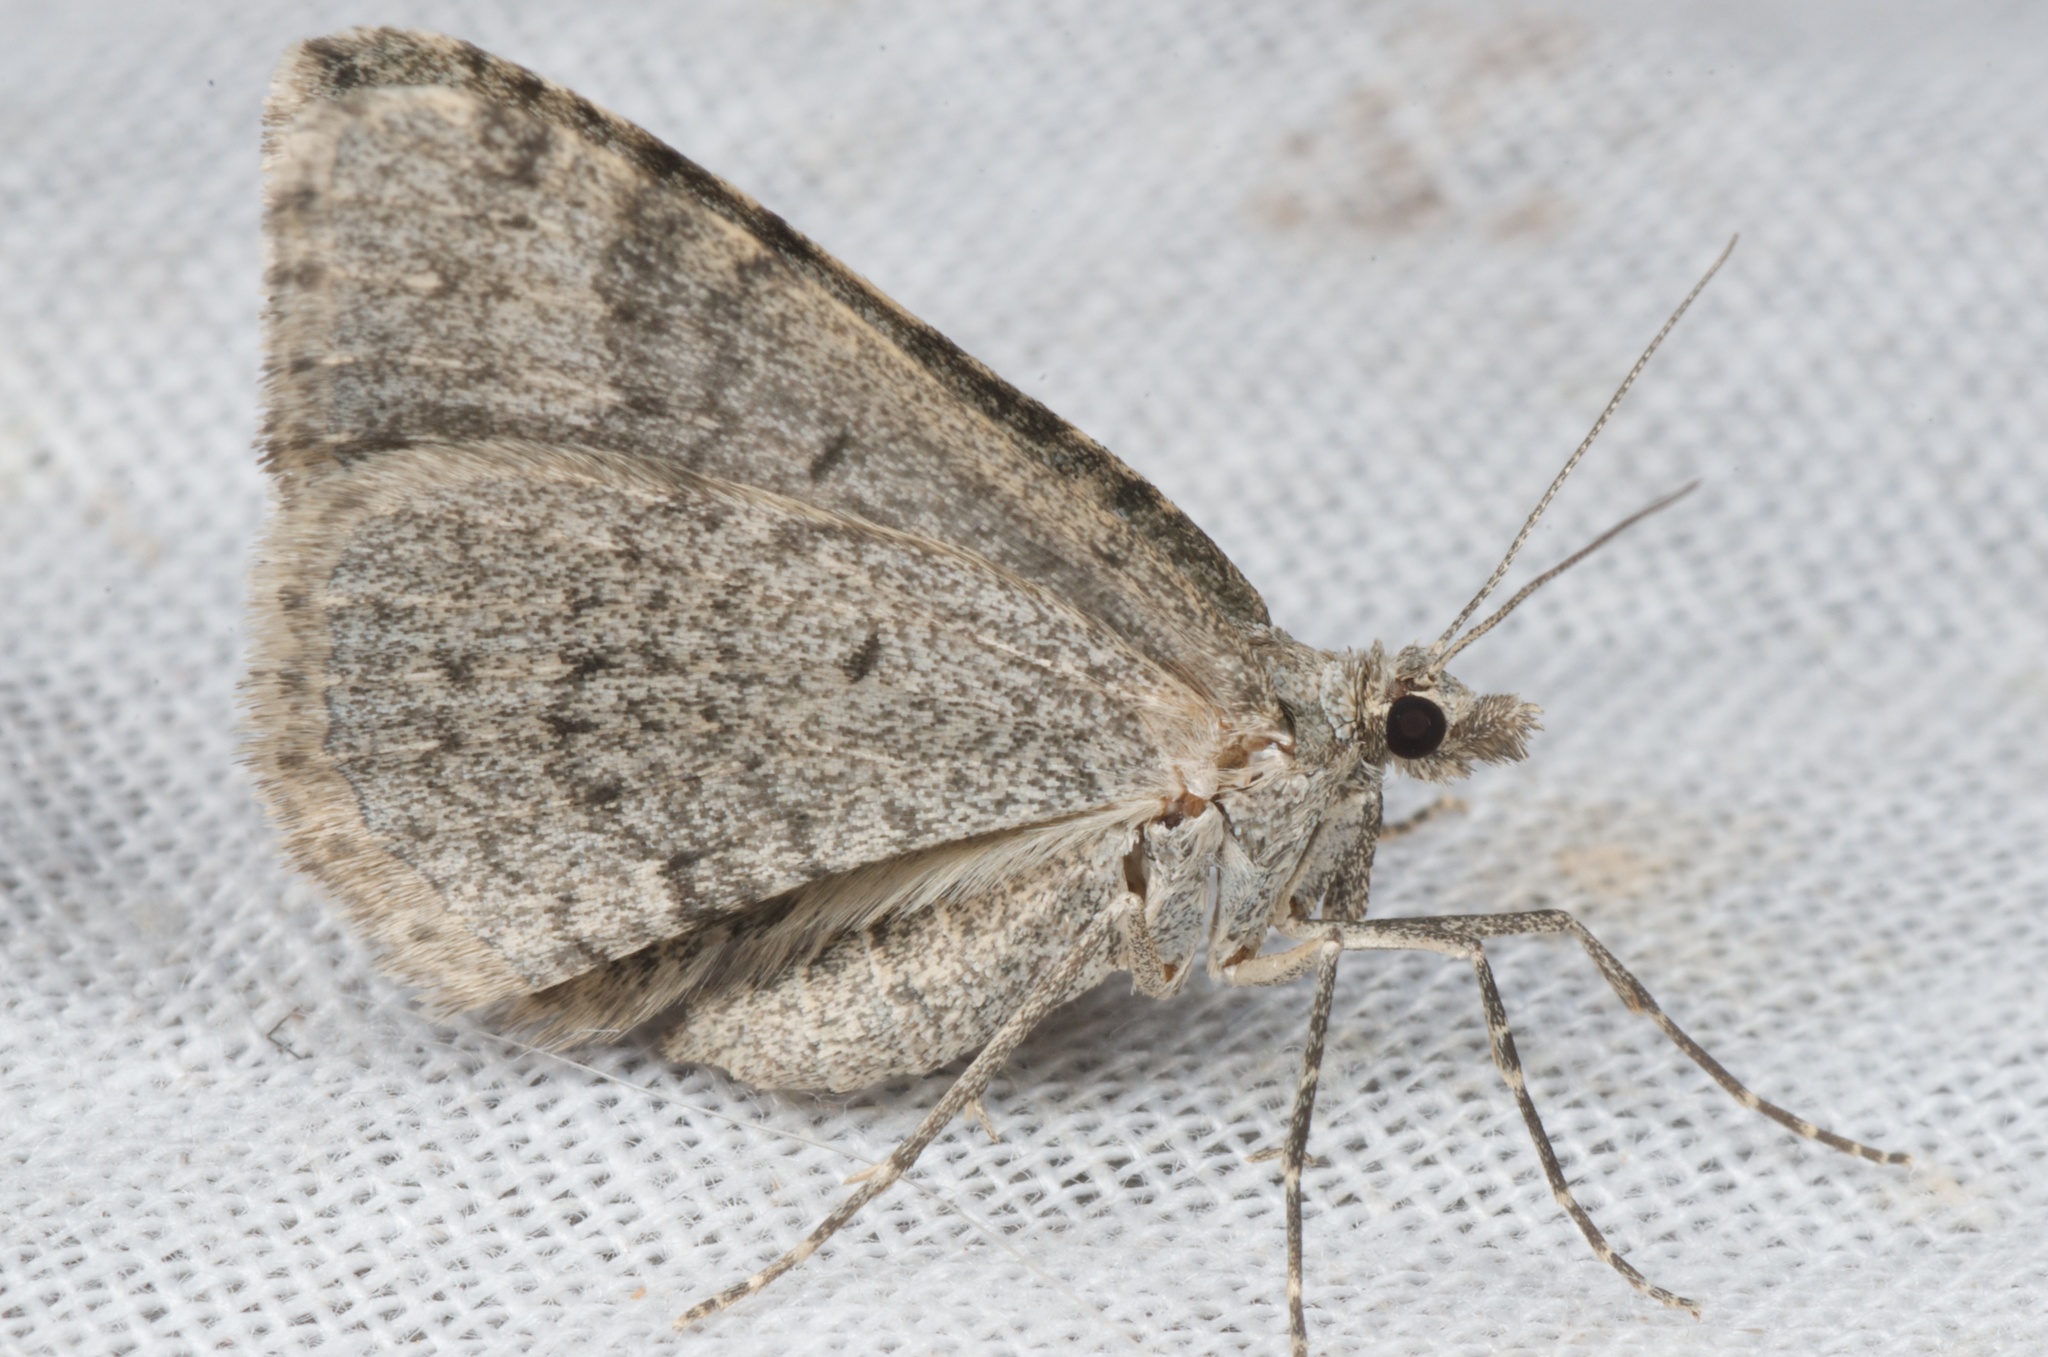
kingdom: Animalia
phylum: Arthropoda
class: Insecta
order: Lepidoptera
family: Geometridae
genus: Helastia
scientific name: Helastia corcularia
